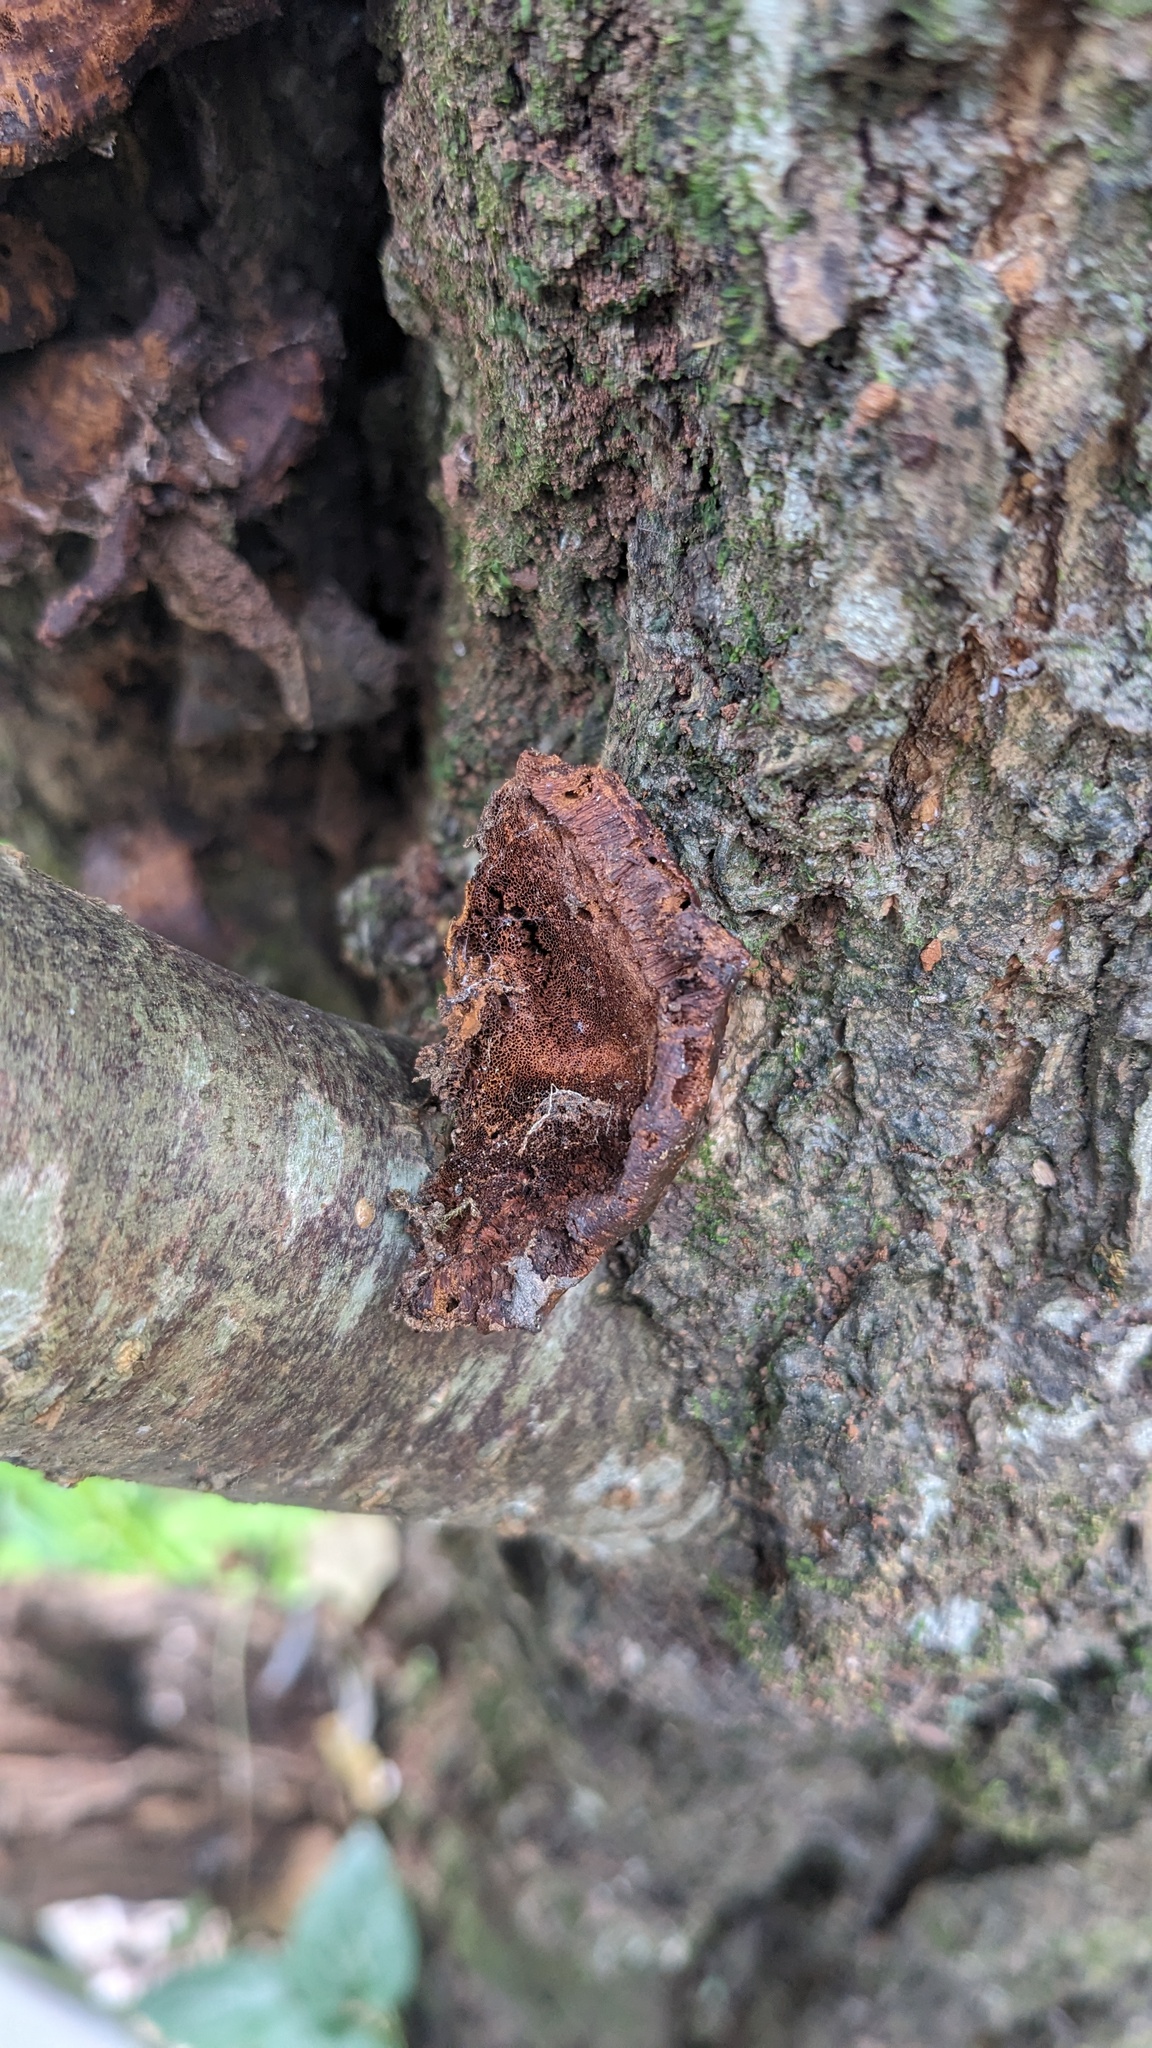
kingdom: Fungi
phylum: Basidiomycota
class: Agaricomycetes
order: Hymenochaetales
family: Hymenochaetaceae
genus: Inocutis
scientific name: Inocutis mikadoi
